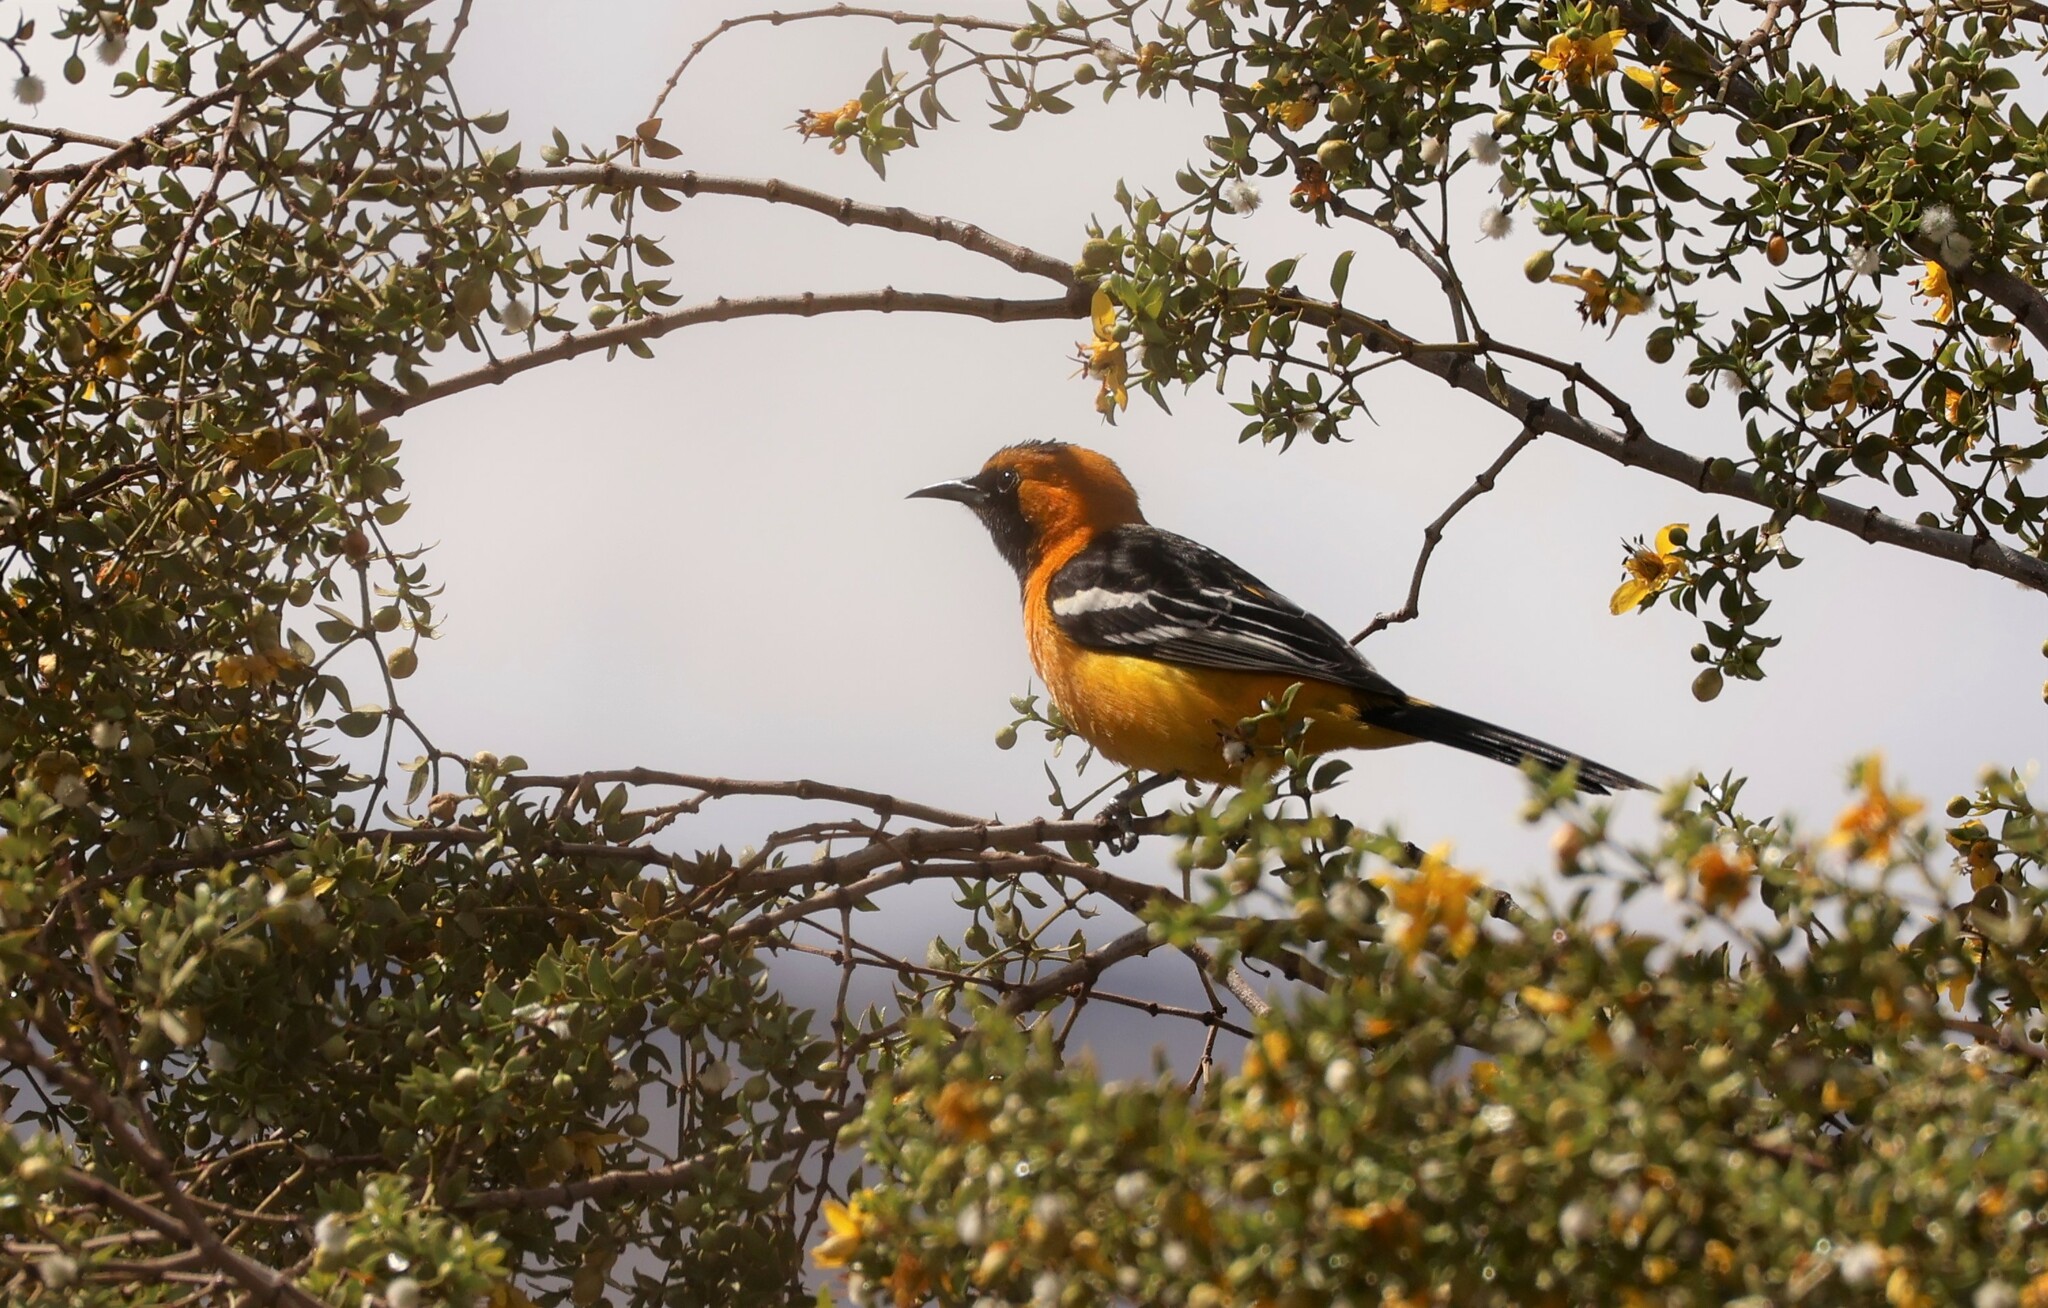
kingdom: Animalia
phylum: Chordata
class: Aves
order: Passeriformes
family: Icteridae
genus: Icterus
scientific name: Icterus cucullatus
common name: Hooded oriole
